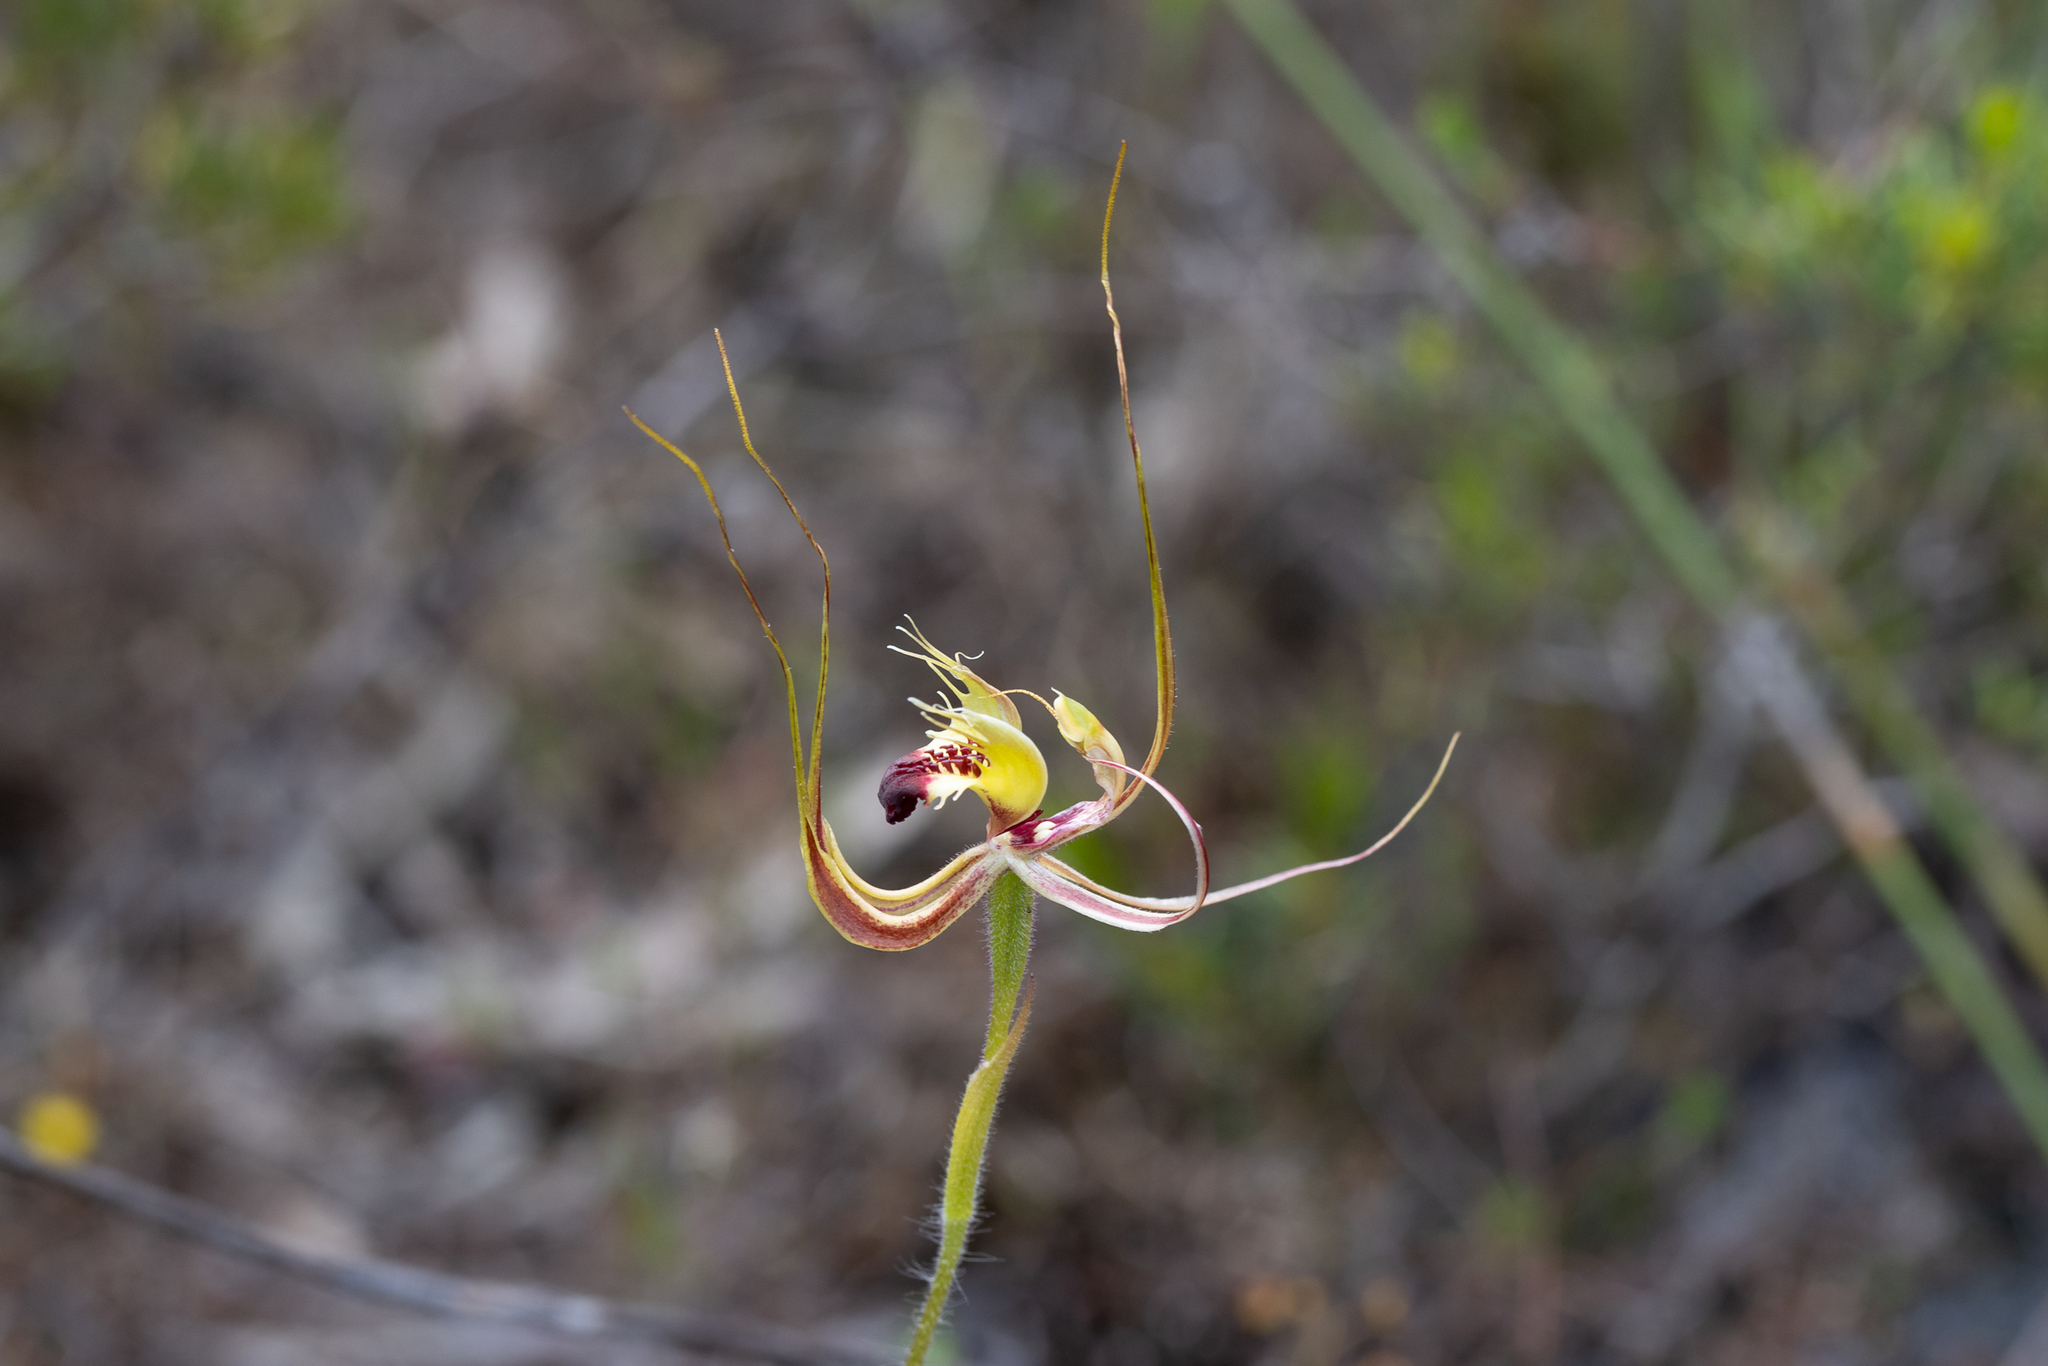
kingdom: Plantae
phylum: Tracheophyta
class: Liliopsida
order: Asparagales
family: Orchidaceae
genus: Caladenia
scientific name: Caladenia attingens
